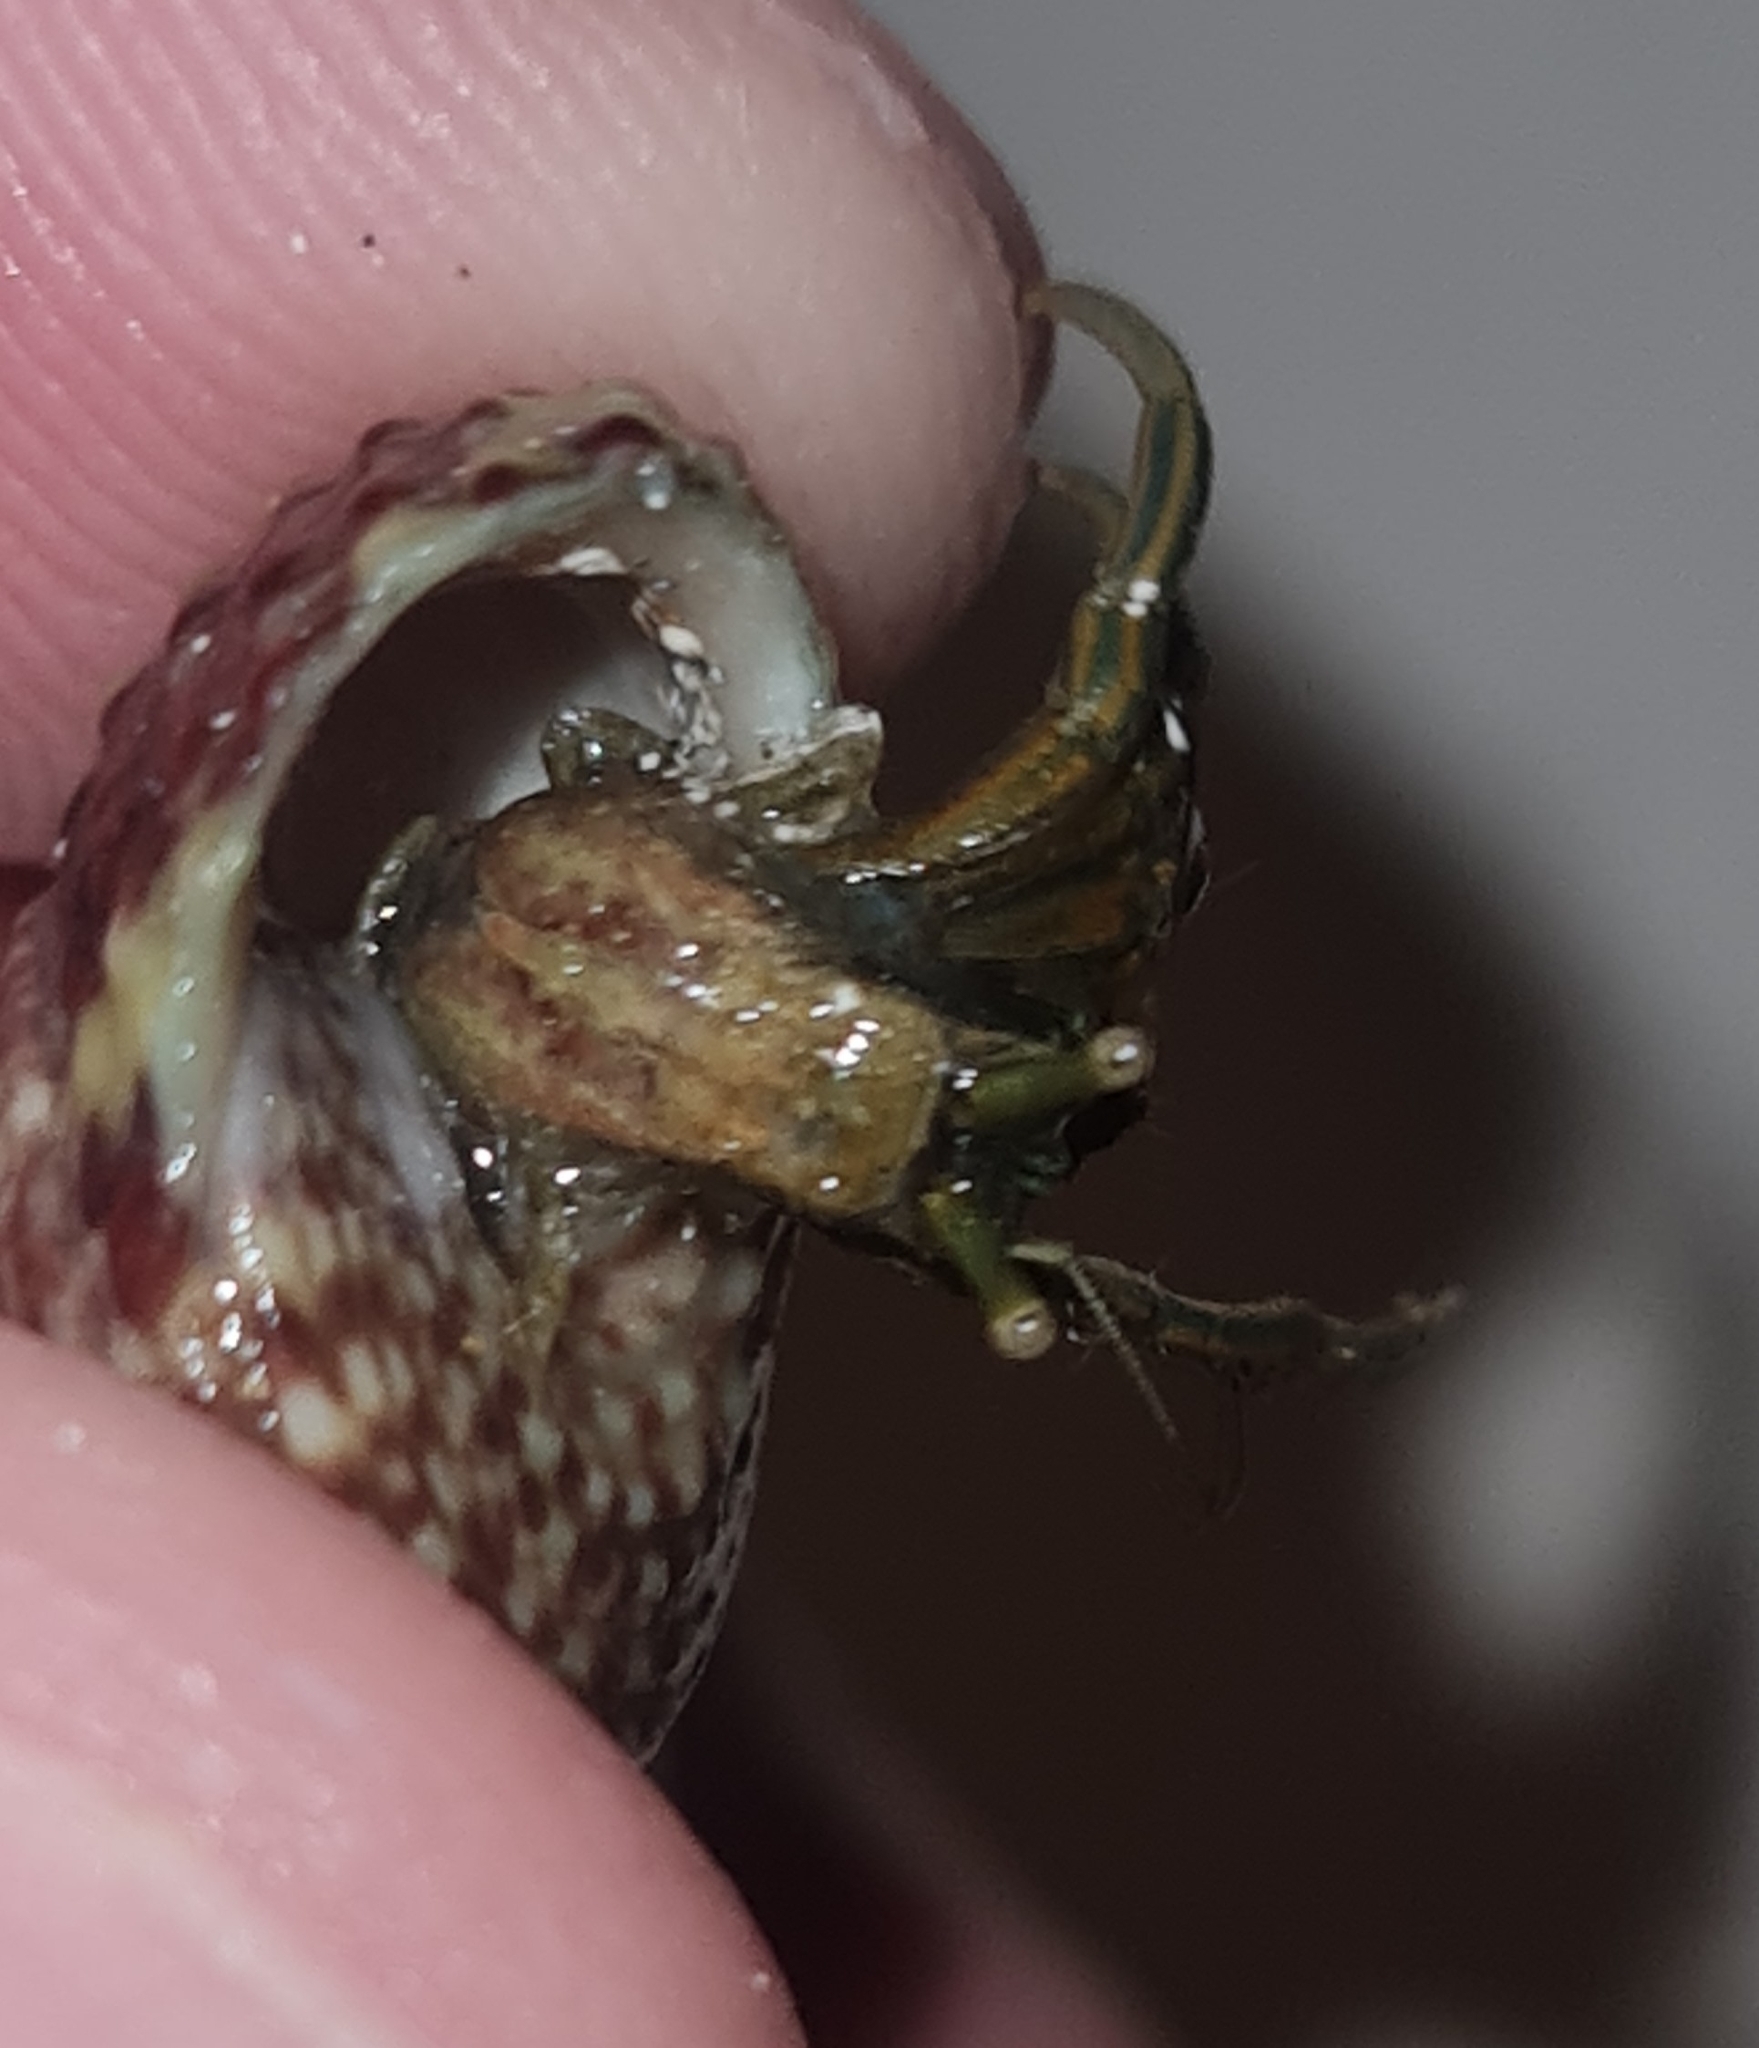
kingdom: Animalia
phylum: Mollusca
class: Gastropoda
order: Trochida
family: Tegulidae
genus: Agathistoma
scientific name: Agathistoma viridulum
